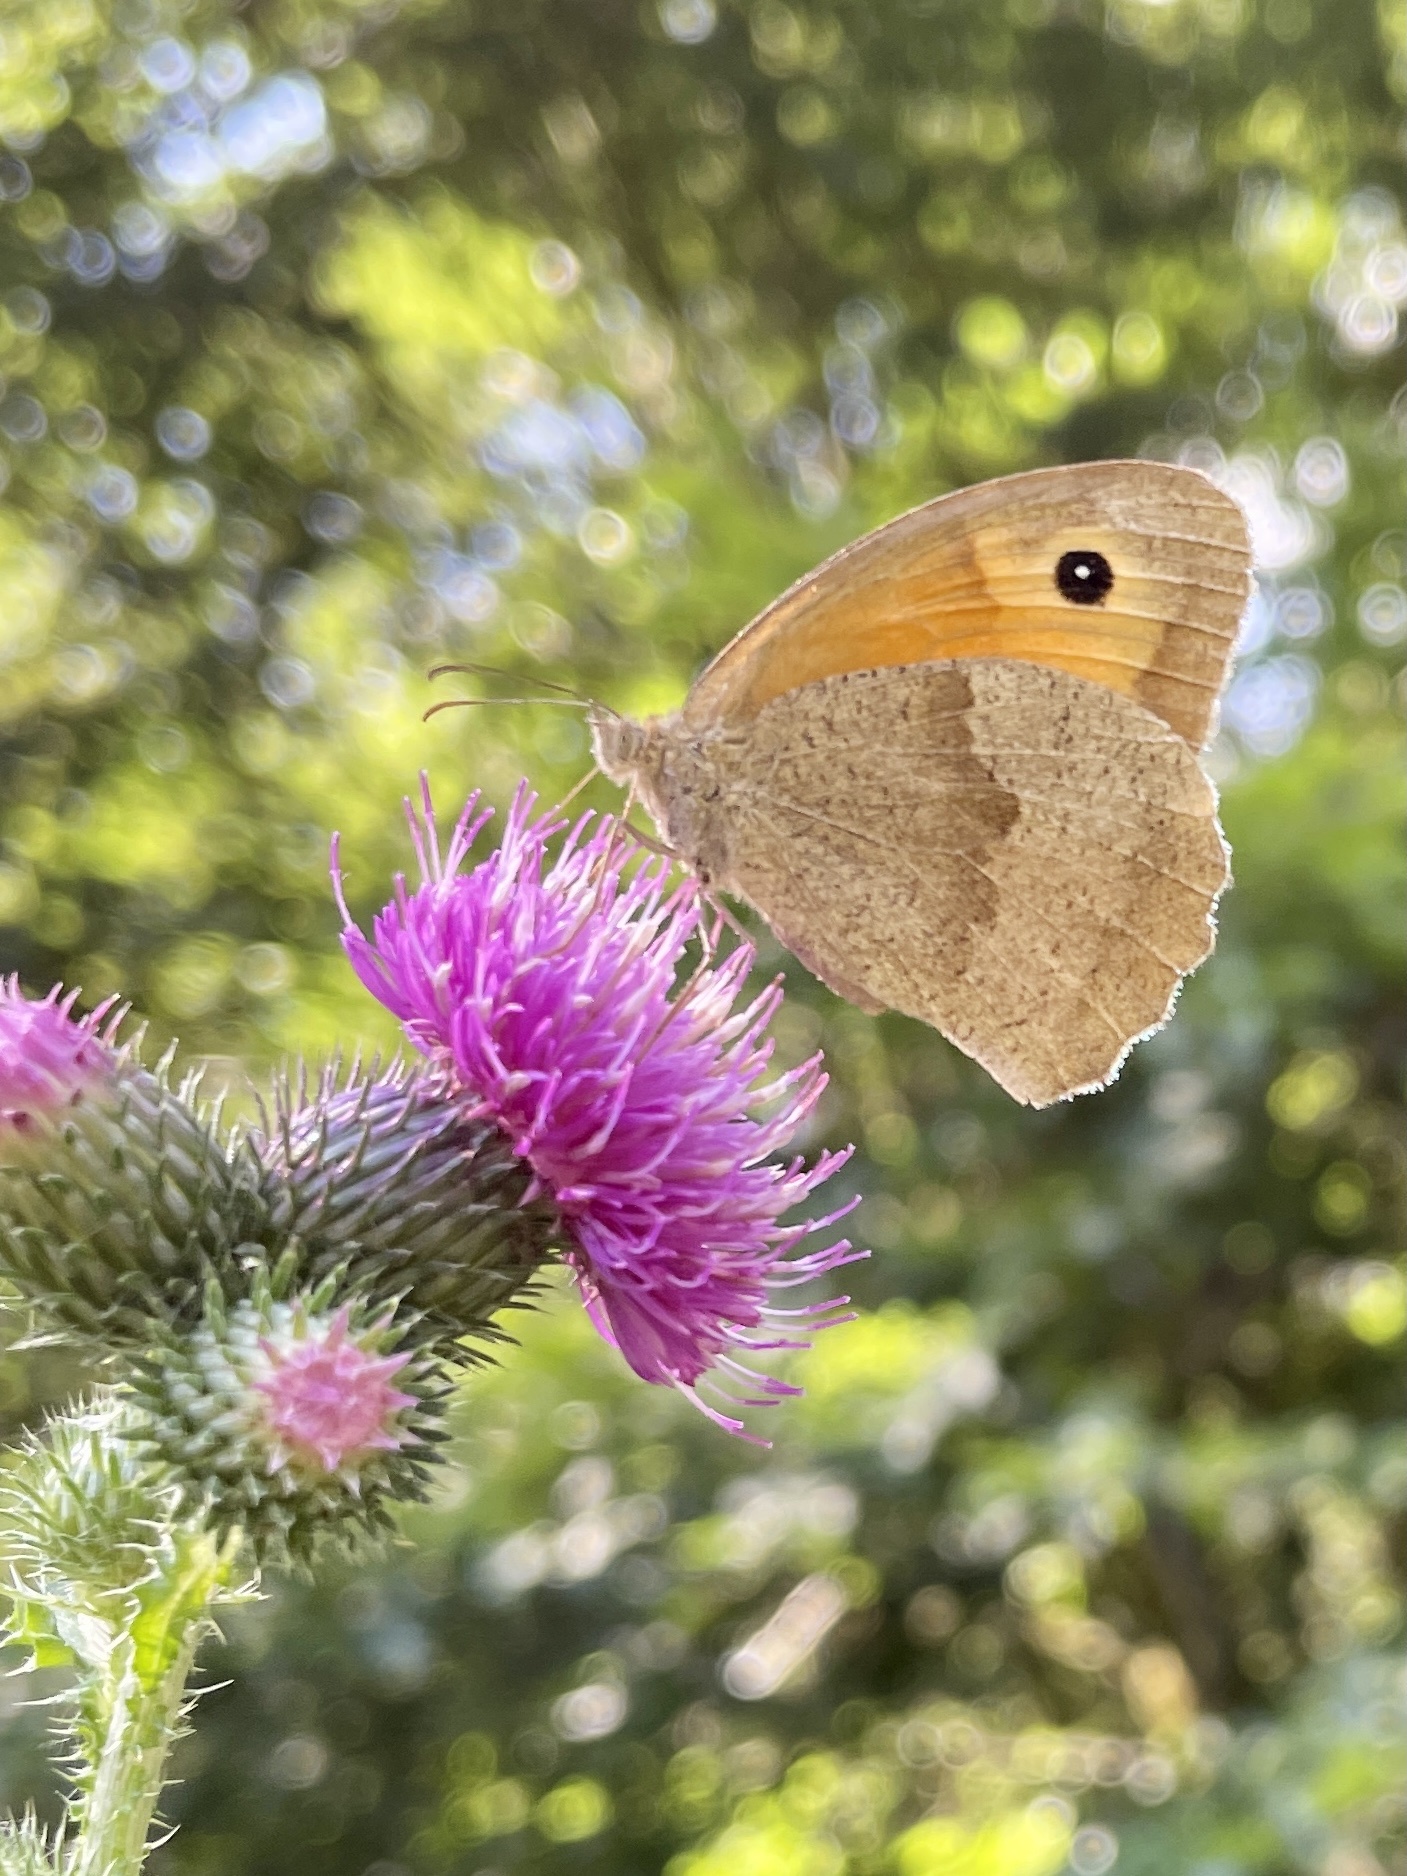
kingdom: Animalia
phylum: Arthropoda
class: Insecta
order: Lepidoptera
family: Nymphalidae
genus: Maniola
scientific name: Maniola jurtina
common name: Meadow brown
